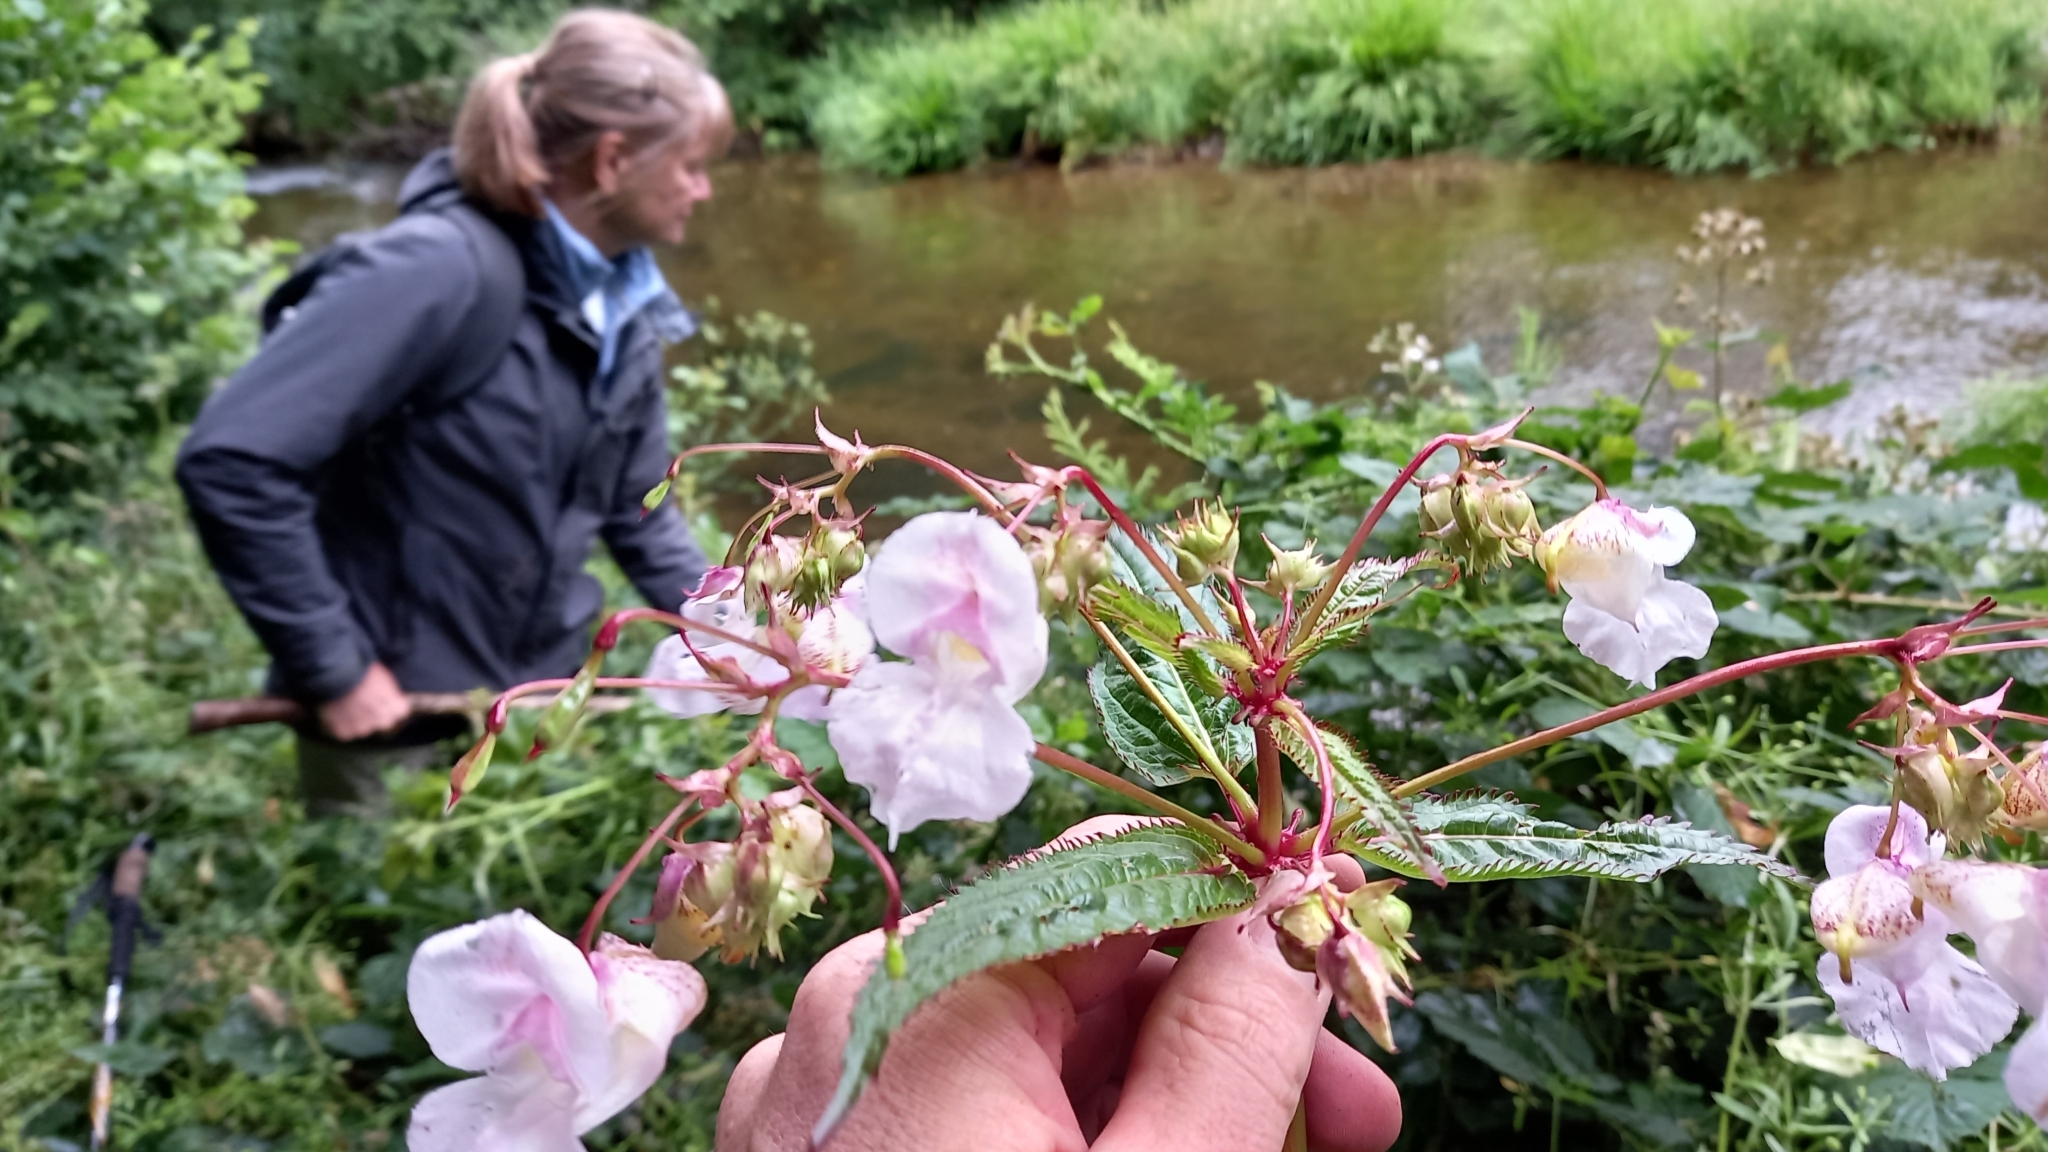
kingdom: Plantae
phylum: Tracheophyta
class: Magnoliopsida
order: Ericales
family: Balsaminaceae
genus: Impatiens
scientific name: Impatiens glandulifera
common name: Himalayan balsam
